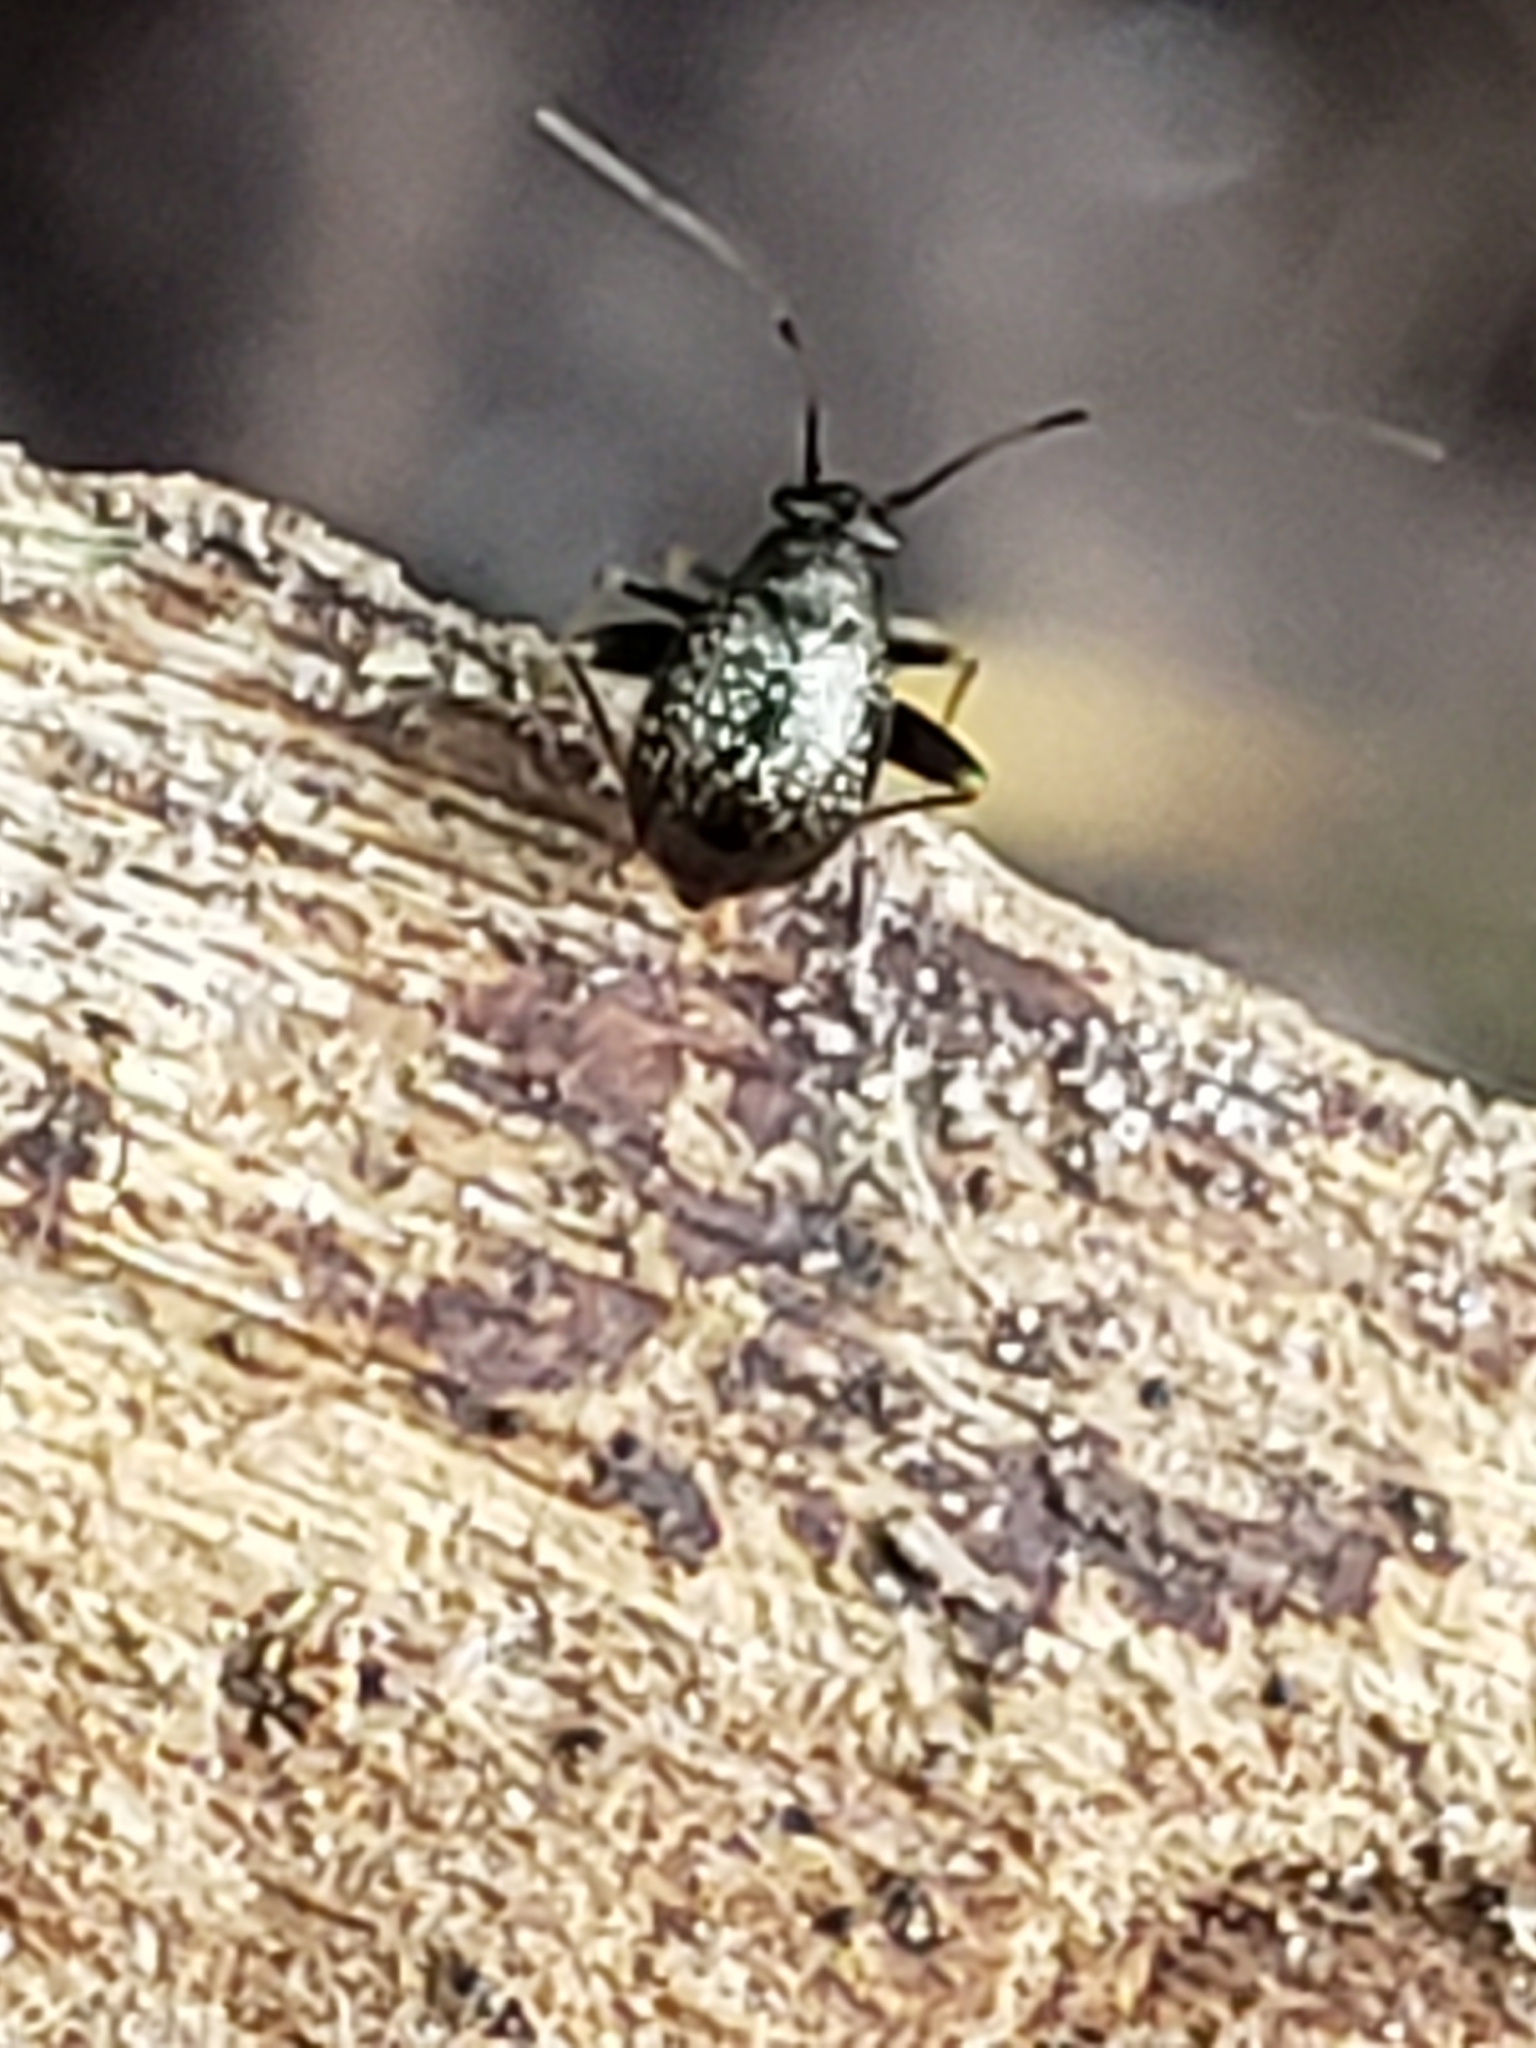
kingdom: Animalia
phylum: Arthropoda
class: Insecta
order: Hemiptera
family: Miridae
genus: Microtechnites
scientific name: Microtechnites bractatus
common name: Garden fleahopper
